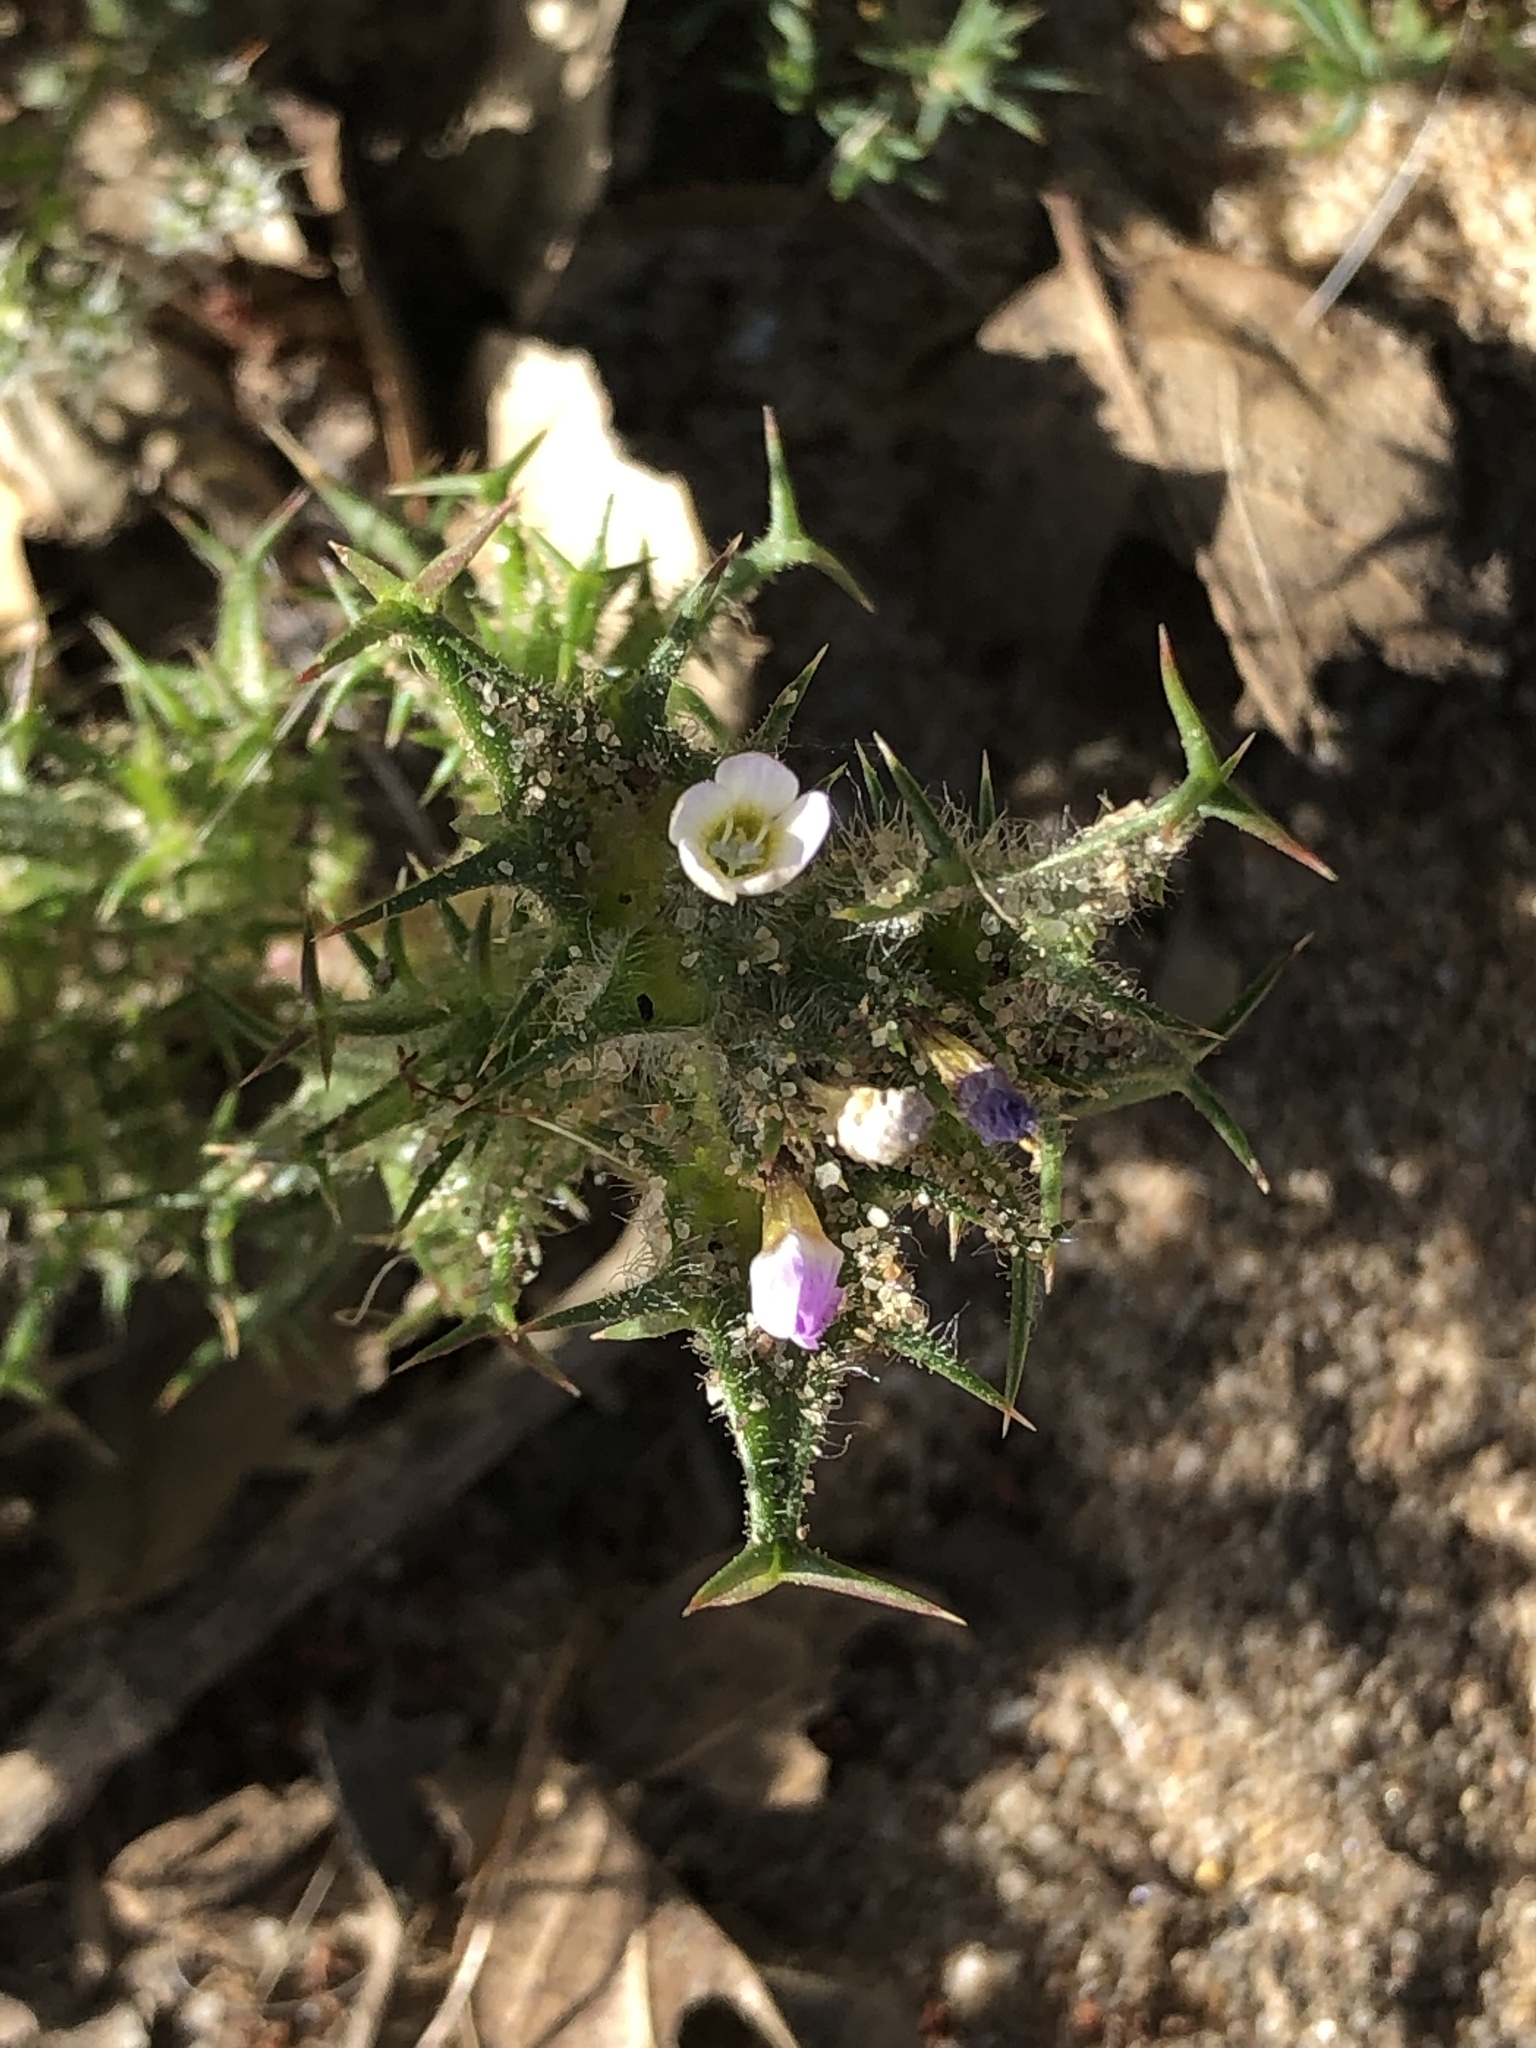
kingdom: Plantae
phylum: Tracheophyta
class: Magnoliopsida
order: Ericales
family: Polemoniaceae
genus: Navarretia
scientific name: Navarretia hamata
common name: Hooked navarretia
